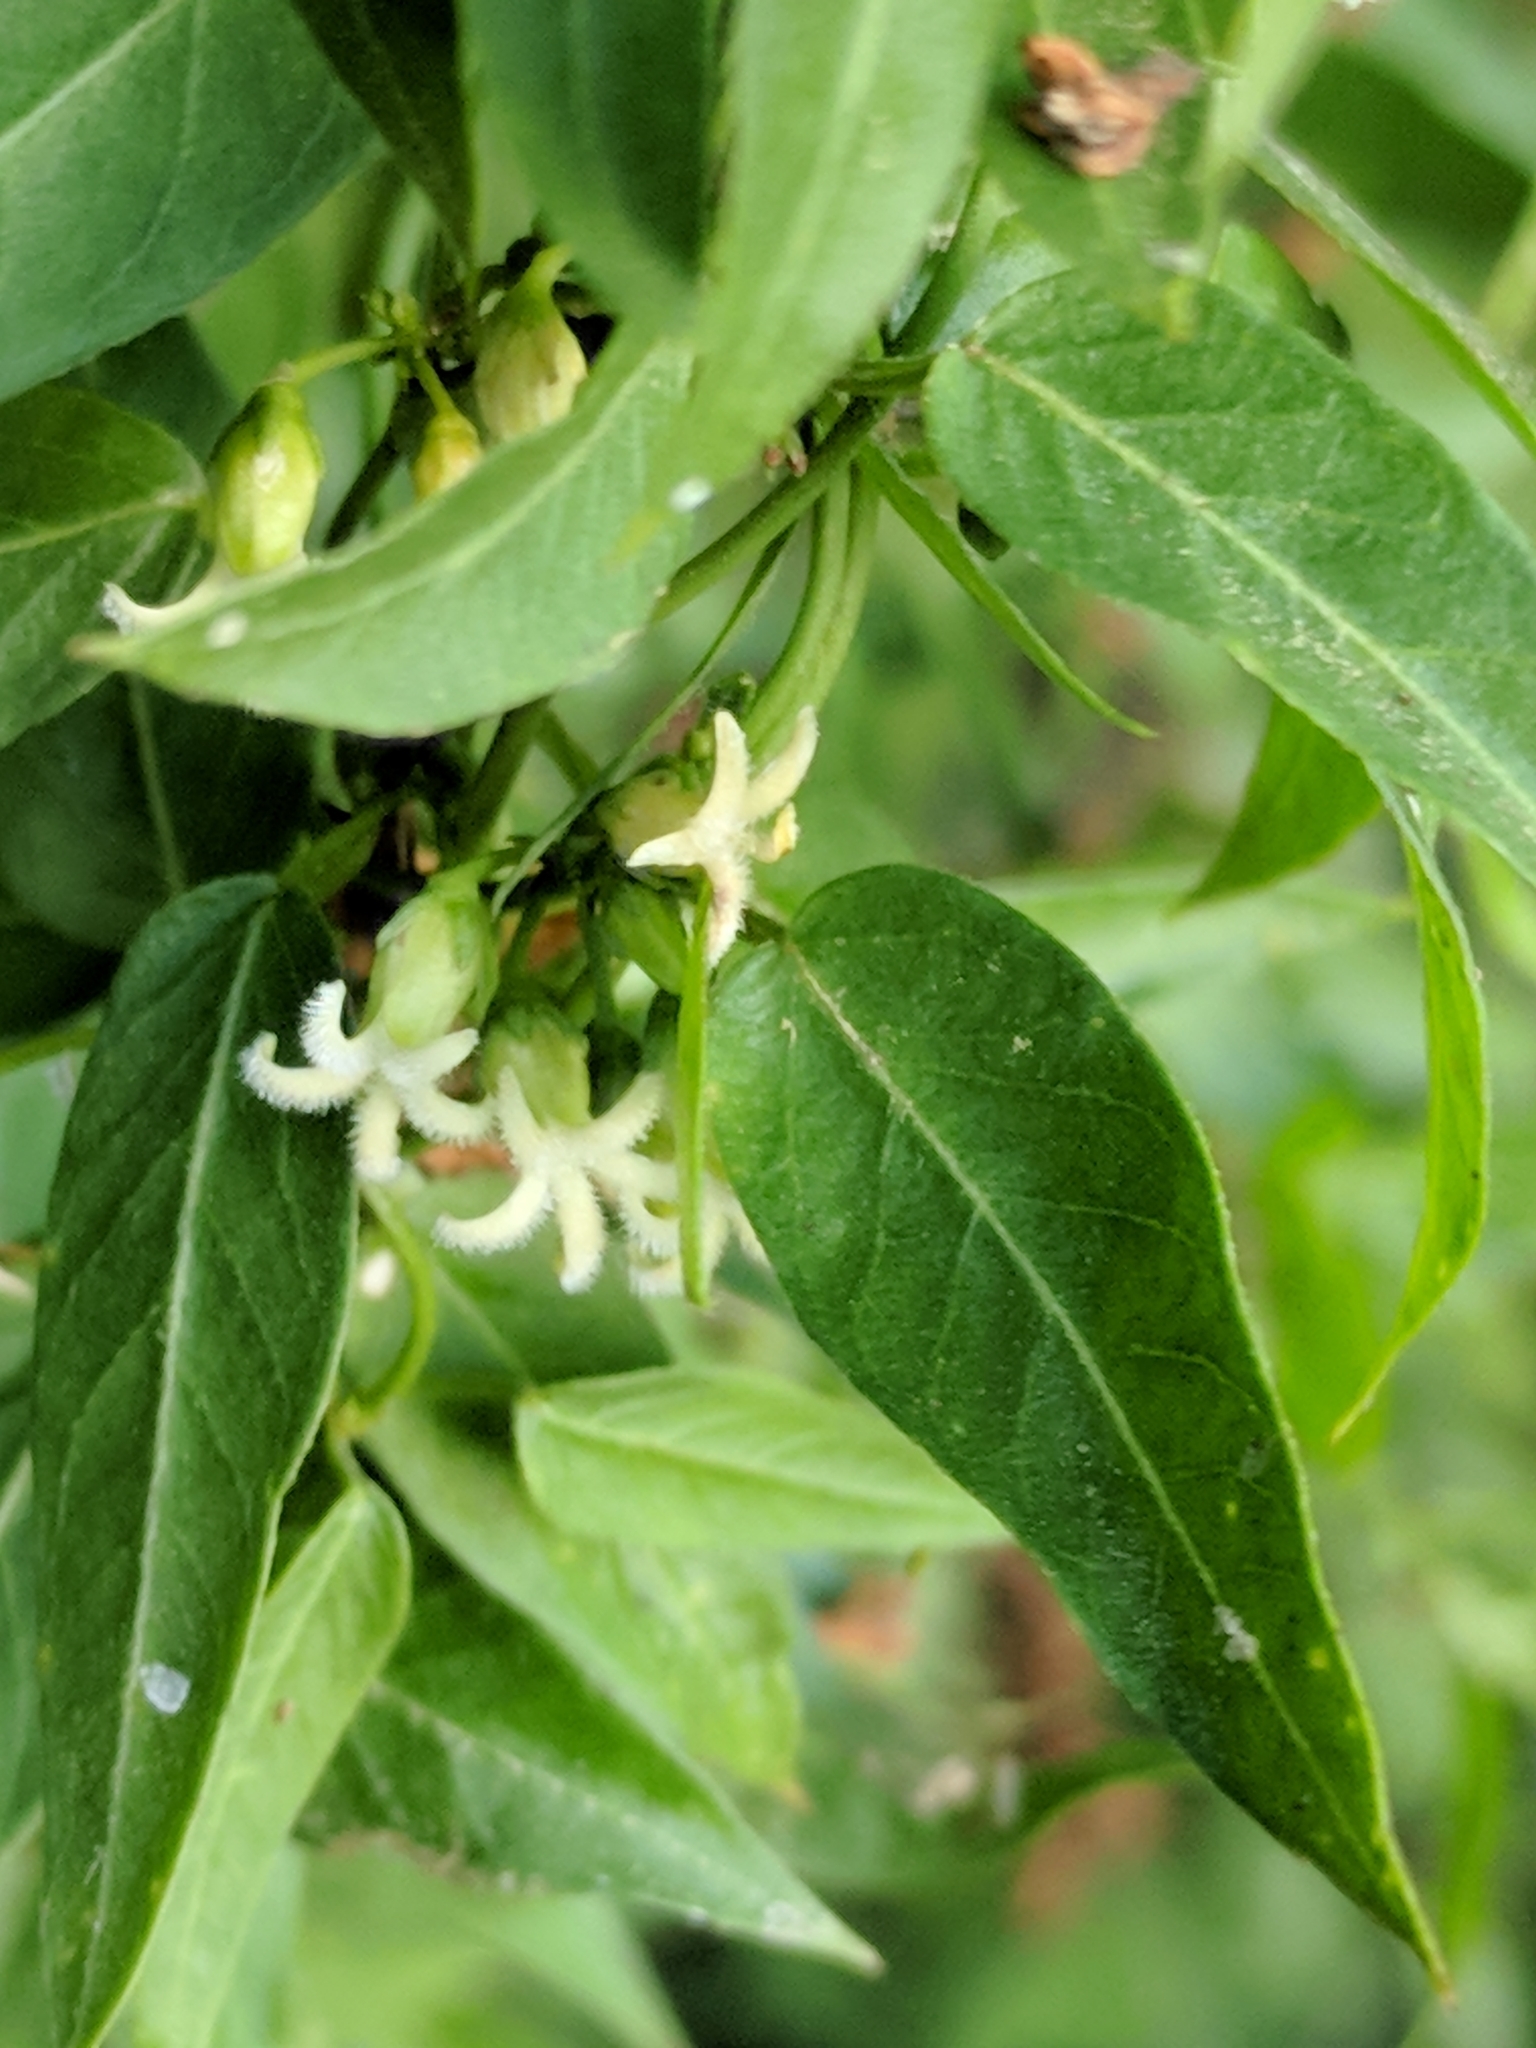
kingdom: Plantae
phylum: Tracheophyta
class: Magnoliopsida
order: Gentianales
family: Apocynaceae
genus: Metastelma
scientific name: Metastelma barbigerum
